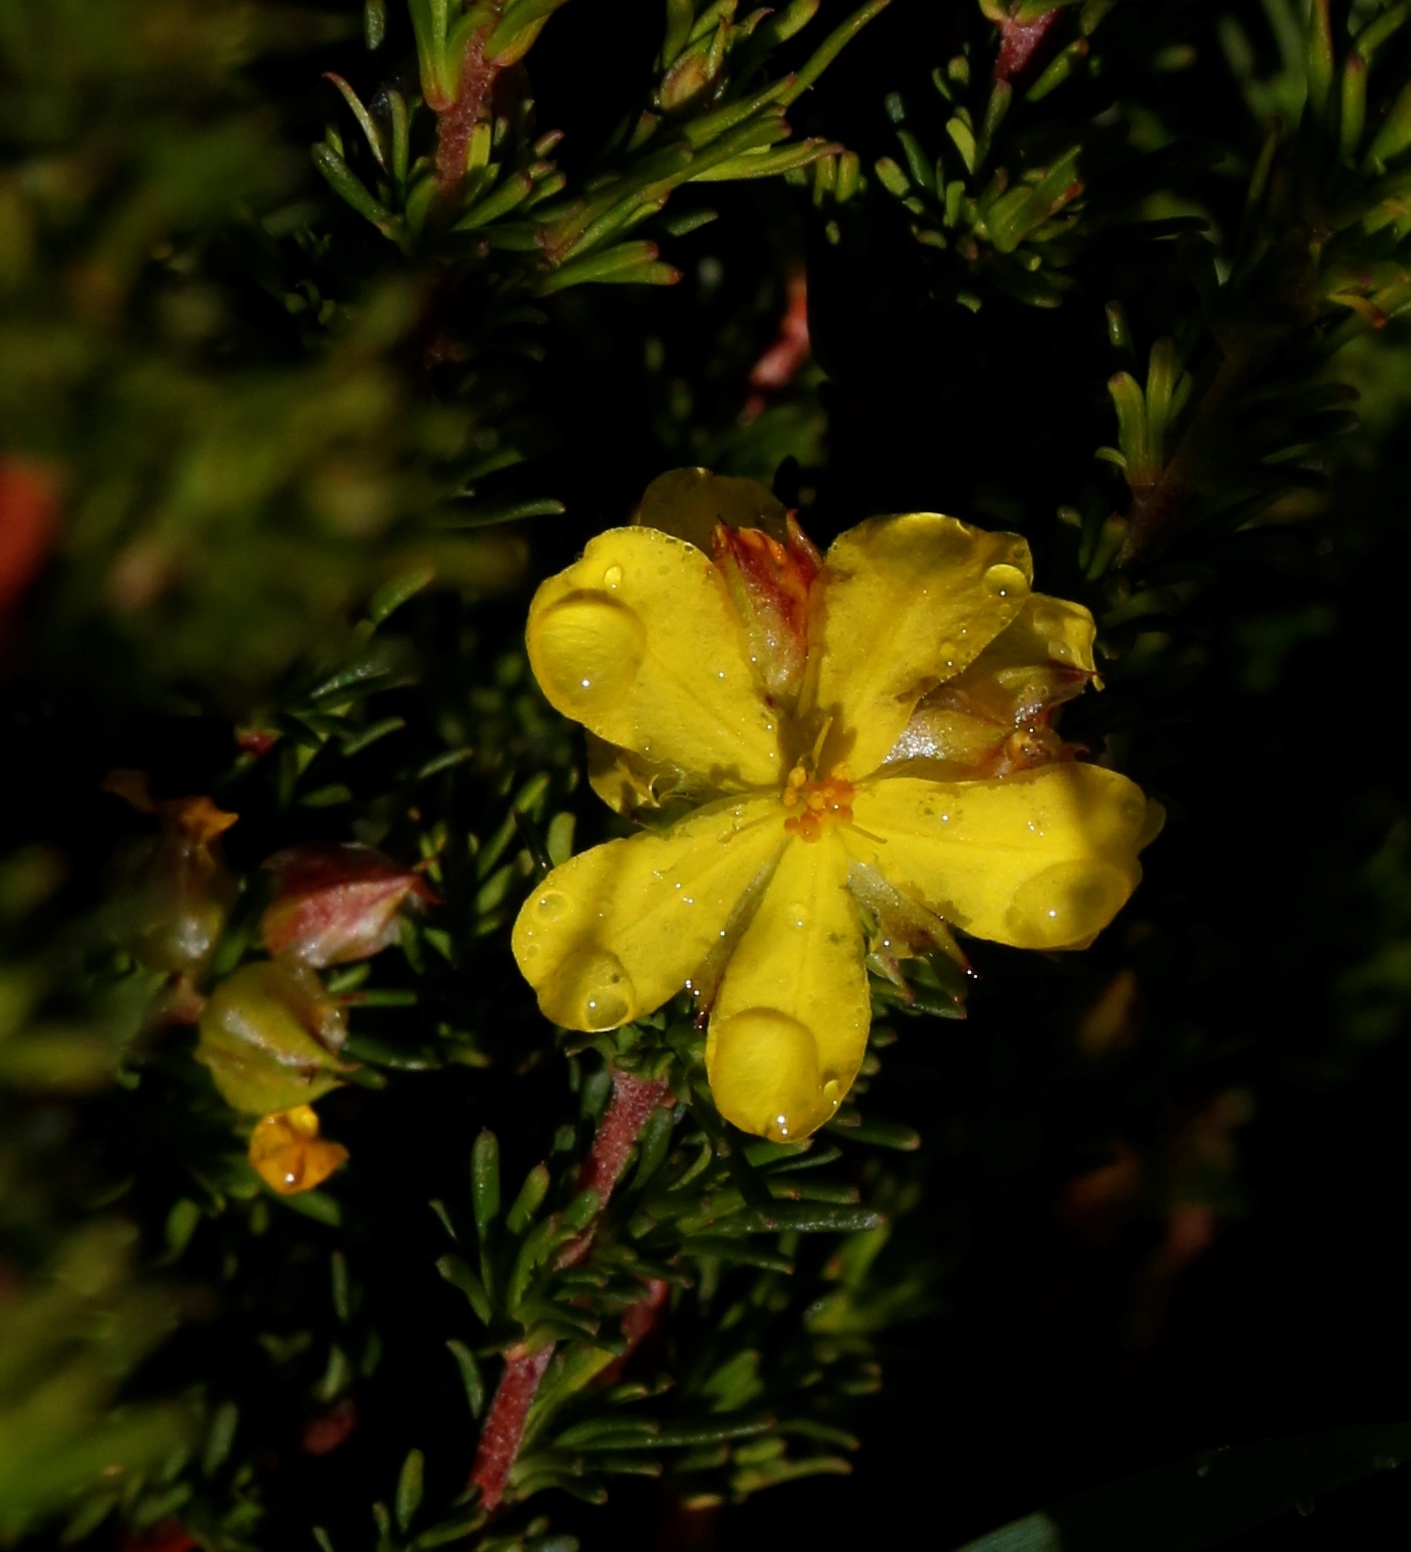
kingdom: Plantae
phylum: Tracheophyta
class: Magnoliopsida
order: Dilleniales
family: Dilleniaceae
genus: Hibbertia
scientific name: Hibbertia
